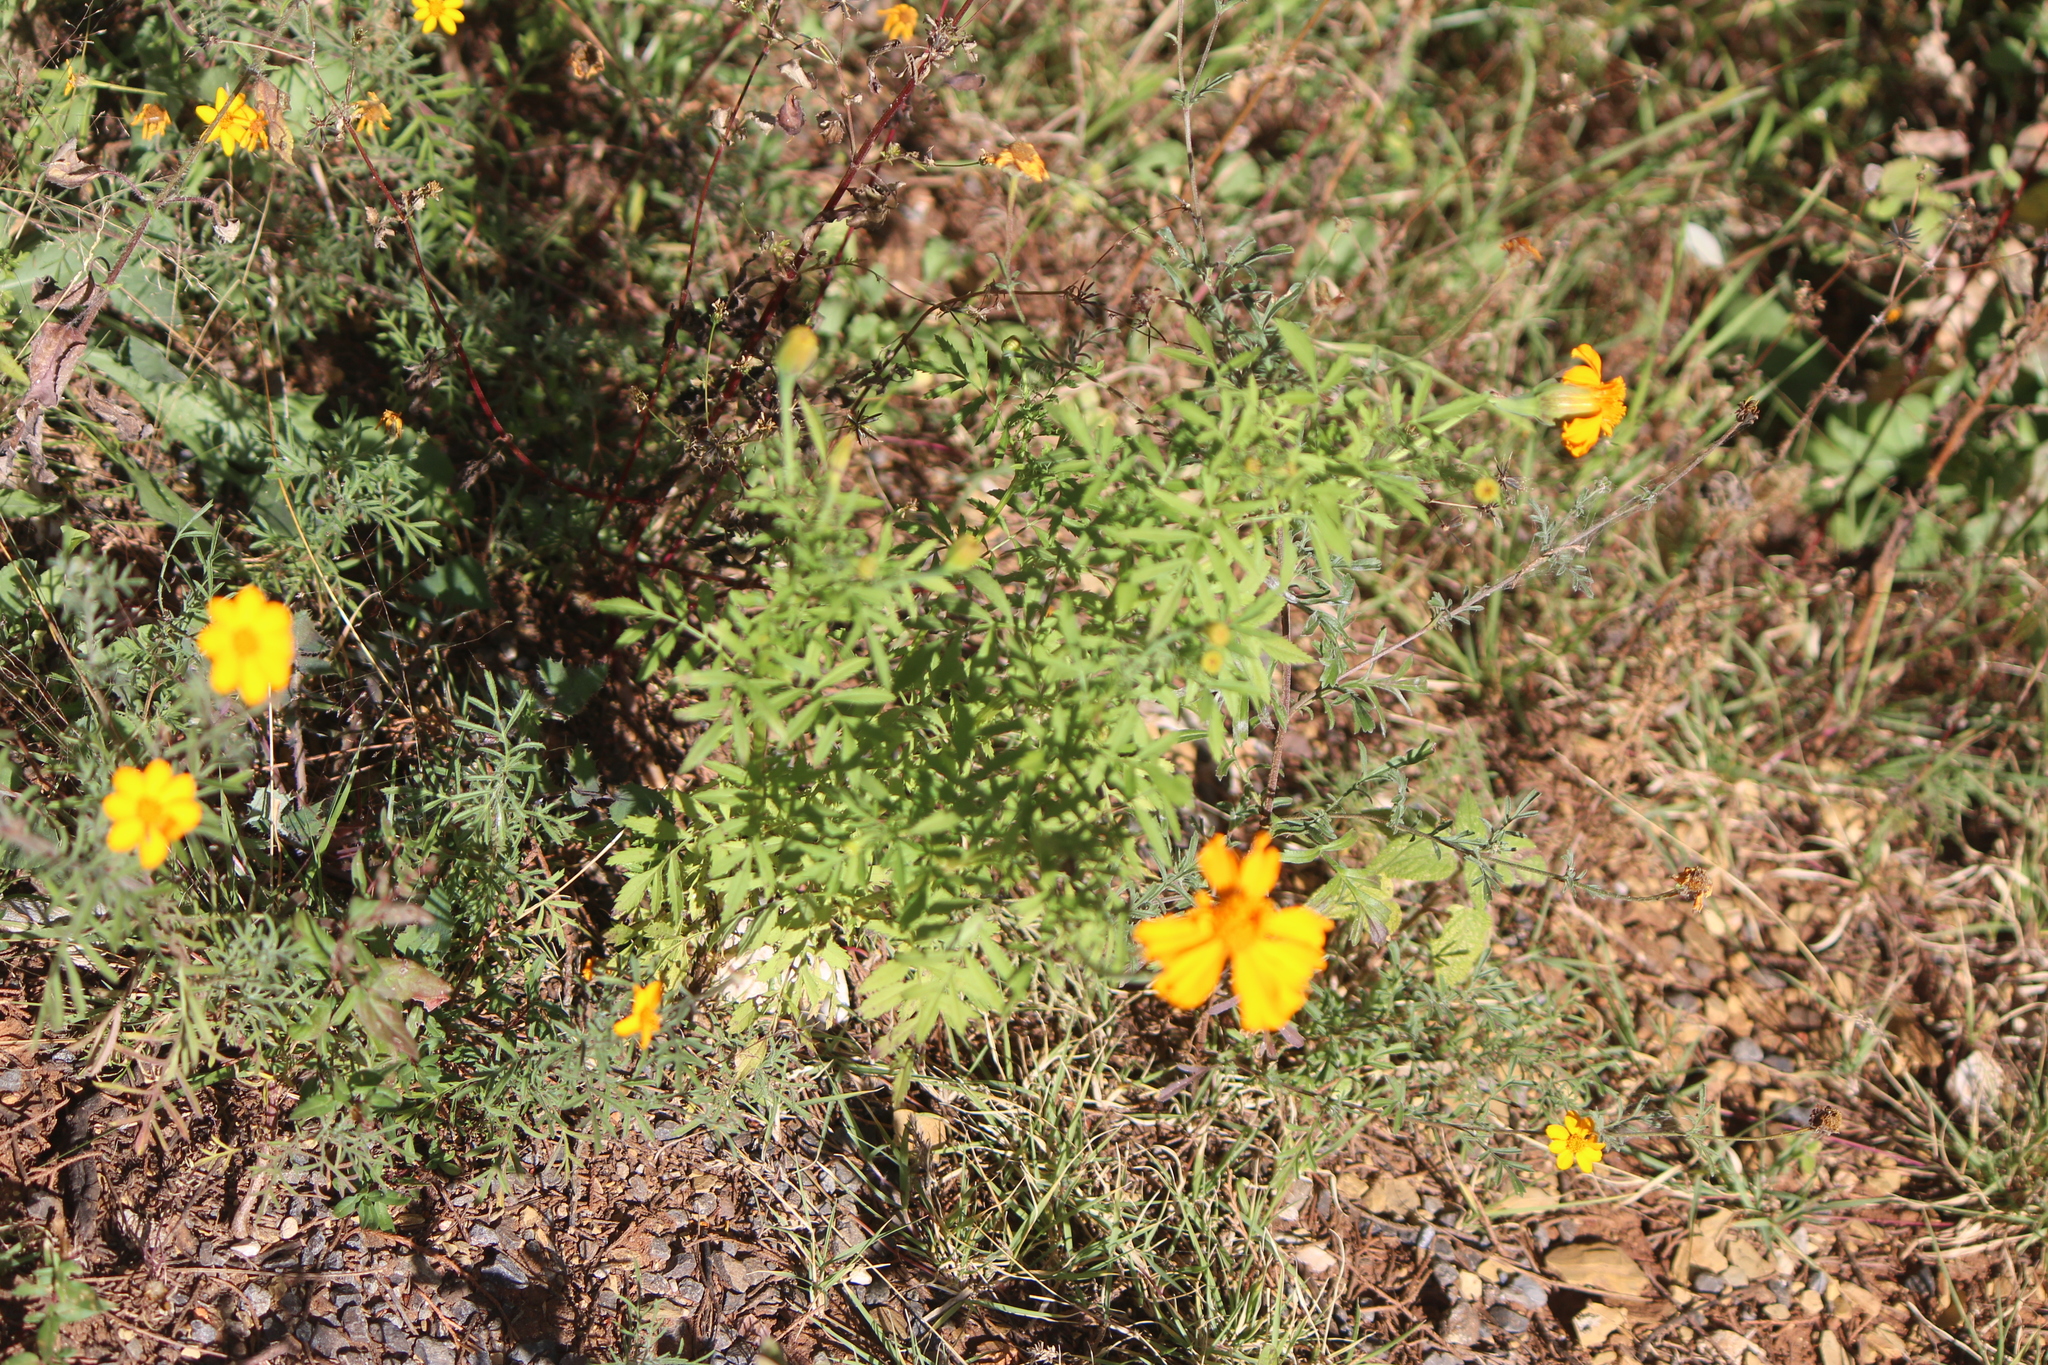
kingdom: Plantae
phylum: Tracheophyta
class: Magnoliopsida
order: Asterales
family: Asteraceae
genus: Tagetes
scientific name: Tagetes erecta
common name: African marigold
